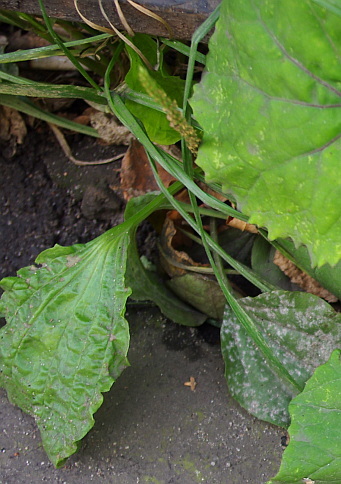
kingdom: Plantae
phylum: Tracheophyta
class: Magnoliopsida
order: Lamiales
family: Plantaginaceae
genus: Plantago
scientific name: Plantago major
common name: Common plantain
